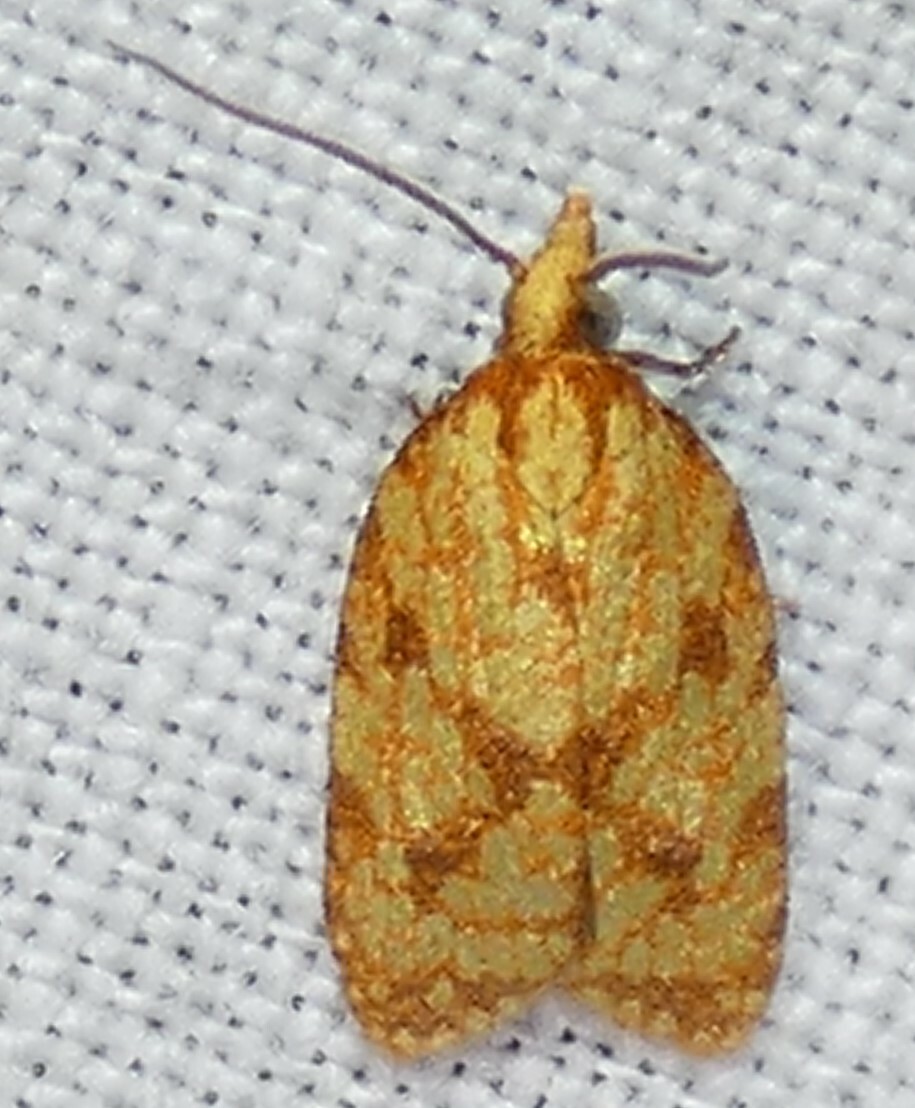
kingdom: Animalia
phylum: Arthropoda
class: Insecta
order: Lepidoptera
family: Tortricidae
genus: Sparganothis
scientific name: Sparganothis sulfureana
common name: Sparganothis fruitworm moth
